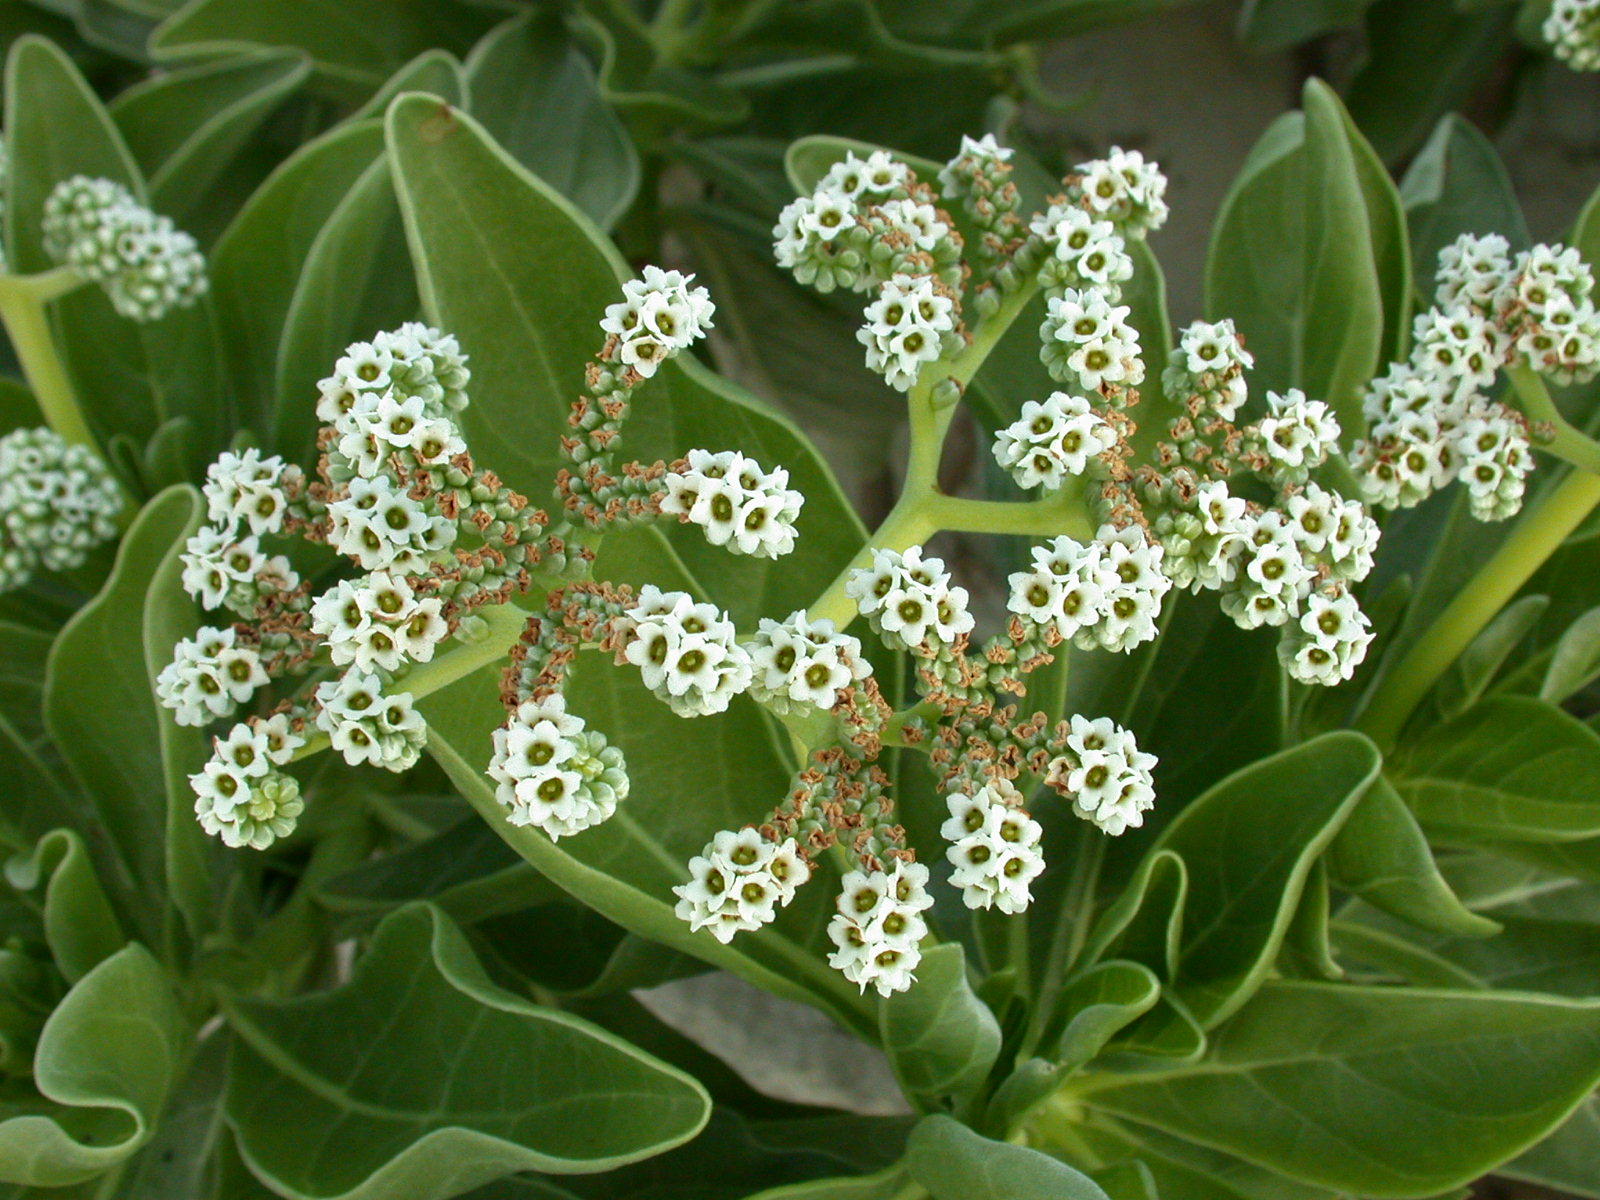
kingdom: Plantae
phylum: Tracheophyta
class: Magnoliopsida
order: Boraginales
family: Heliotropiaceae
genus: Heliotropium
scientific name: Heliotropium velutinum
